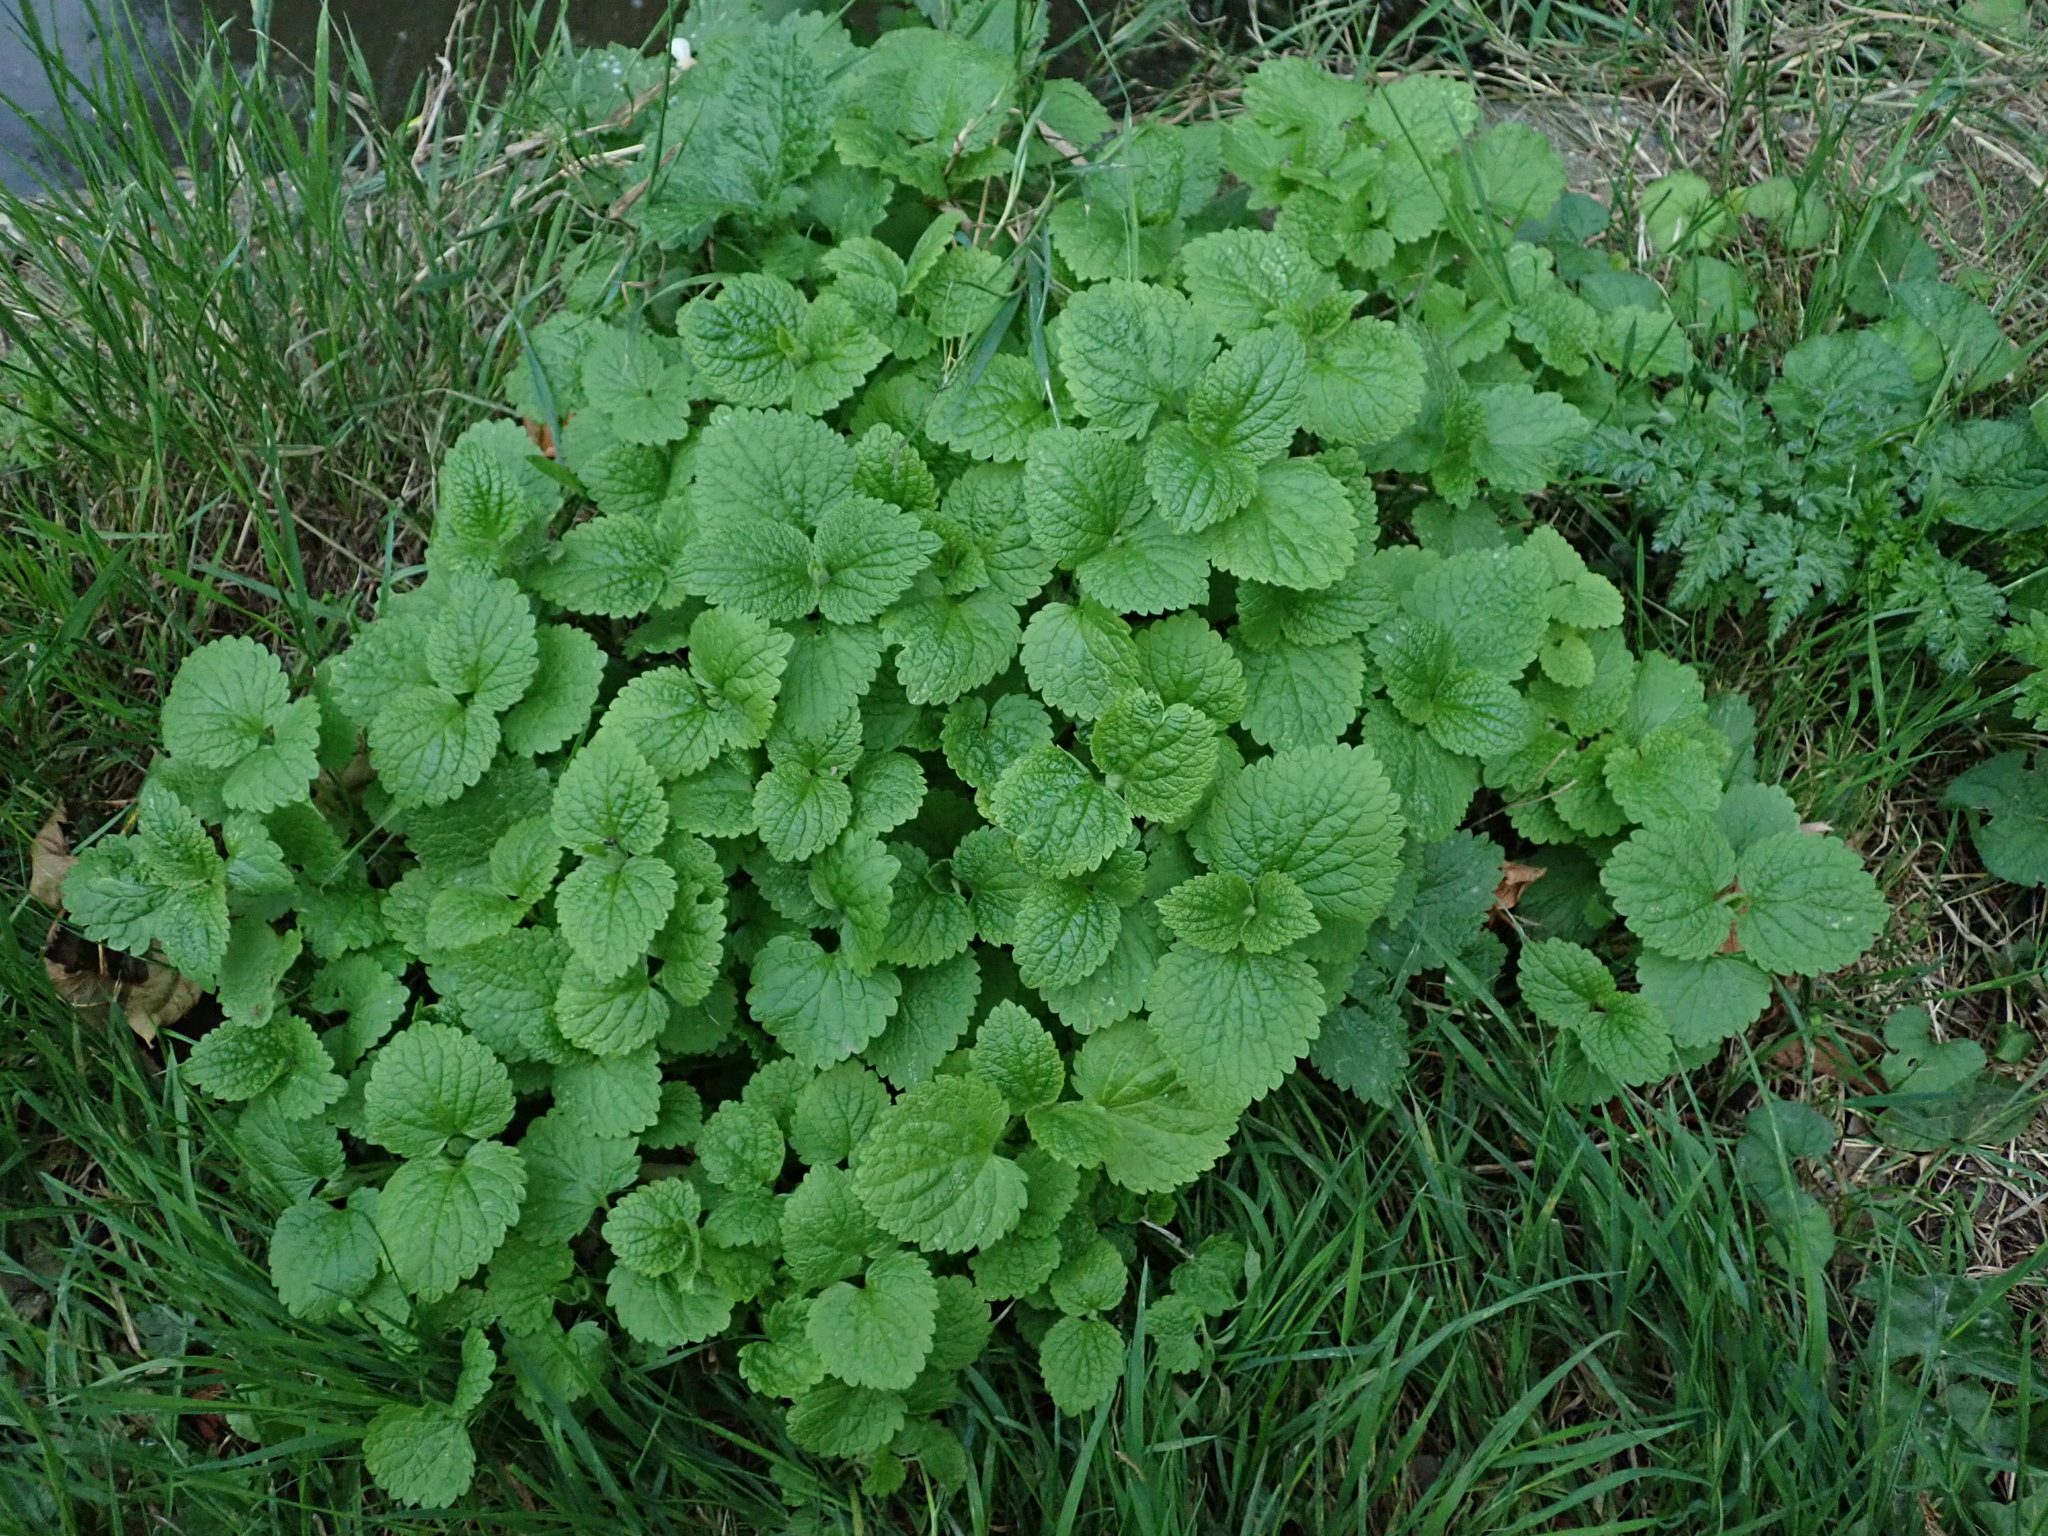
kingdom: Plantae
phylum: Tracheophyta
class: Magnoliopsida
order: Brassicales
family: Brassicaceae
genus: Alliaria
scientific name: Alliaria petiolata
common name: Garlic mustard
